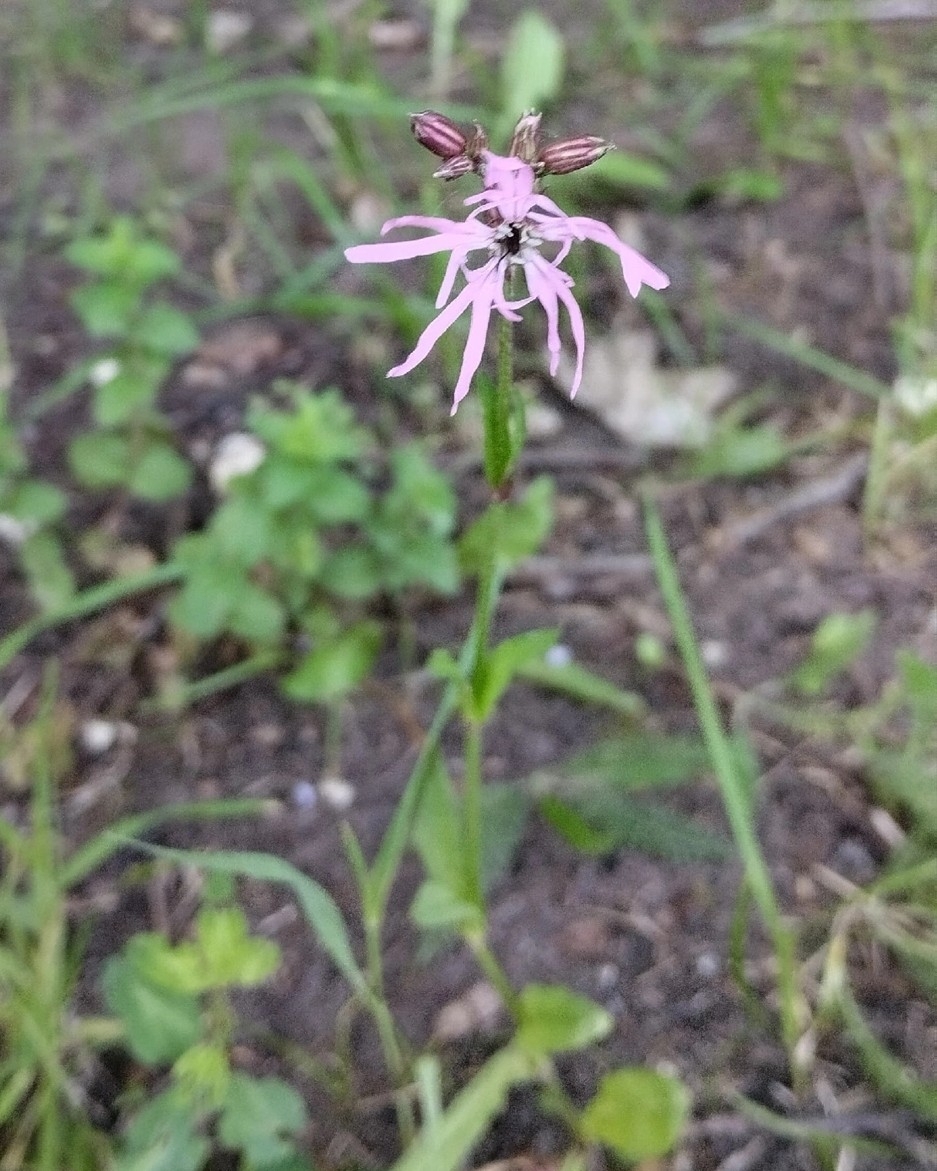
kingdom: Plantae
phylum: Tracheophyta
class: Magnoliopsida
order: Caryophyllales
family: Caryophyllaceae
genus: Silene
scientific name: Silene flos-cuculi
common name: Ragged-robin
